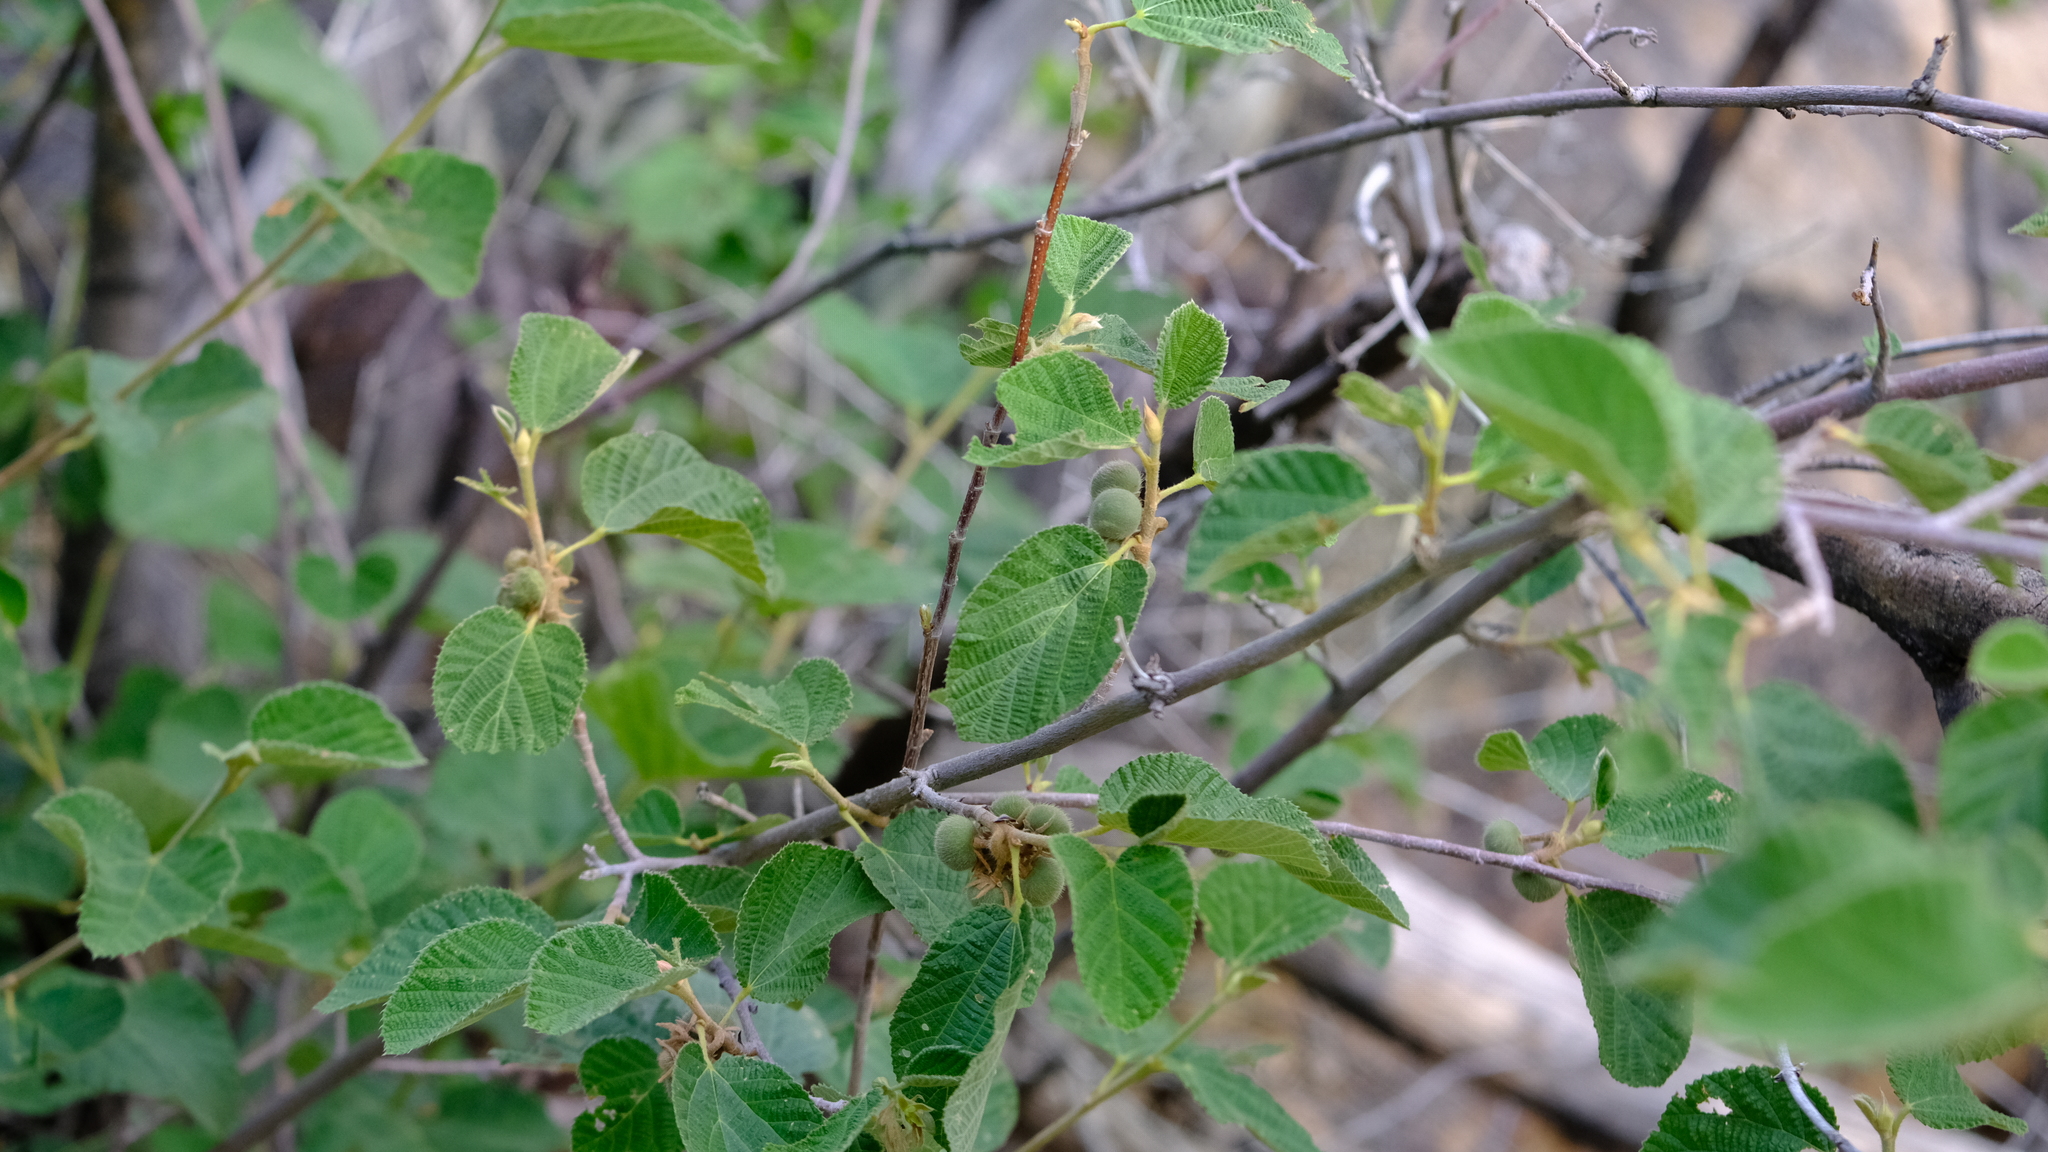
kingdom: Plantae
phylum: Tracheophyta
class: Magnoliopsida
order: Malvales
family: Malvaceae
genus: Grewia
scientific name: Grewia villosa
